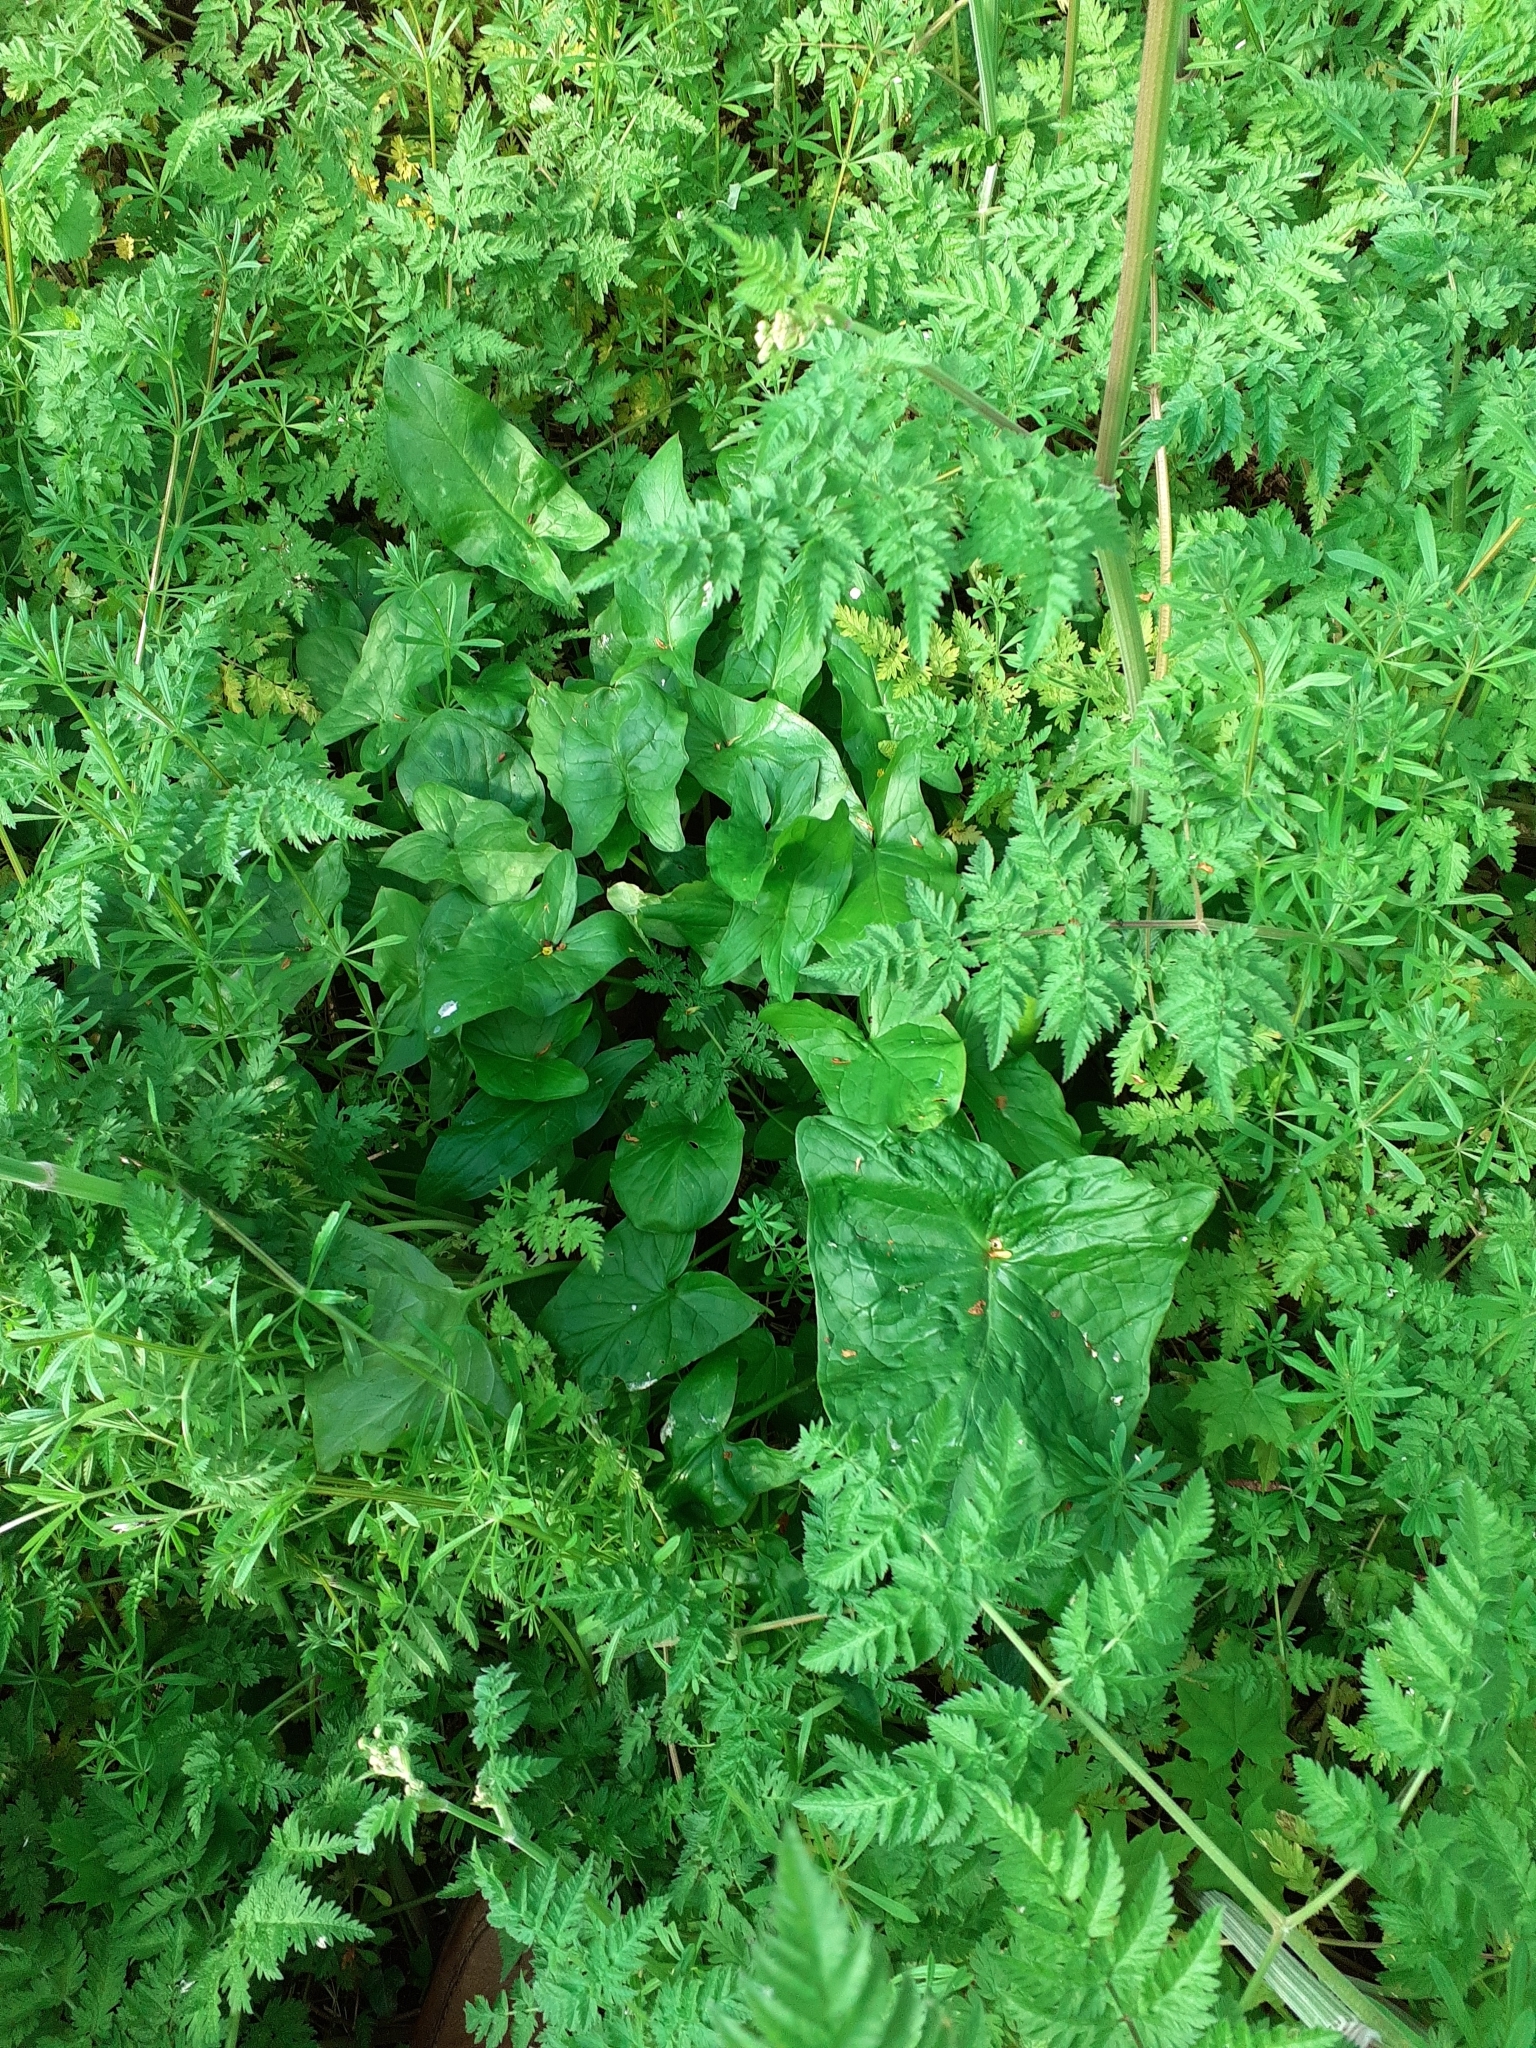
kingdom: Plantae
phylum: Tracheophyta
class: Liliopsida
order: Alismatales
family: Araceae
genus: Arum
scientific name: Arum maculatum
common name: Lords-and-ladies
